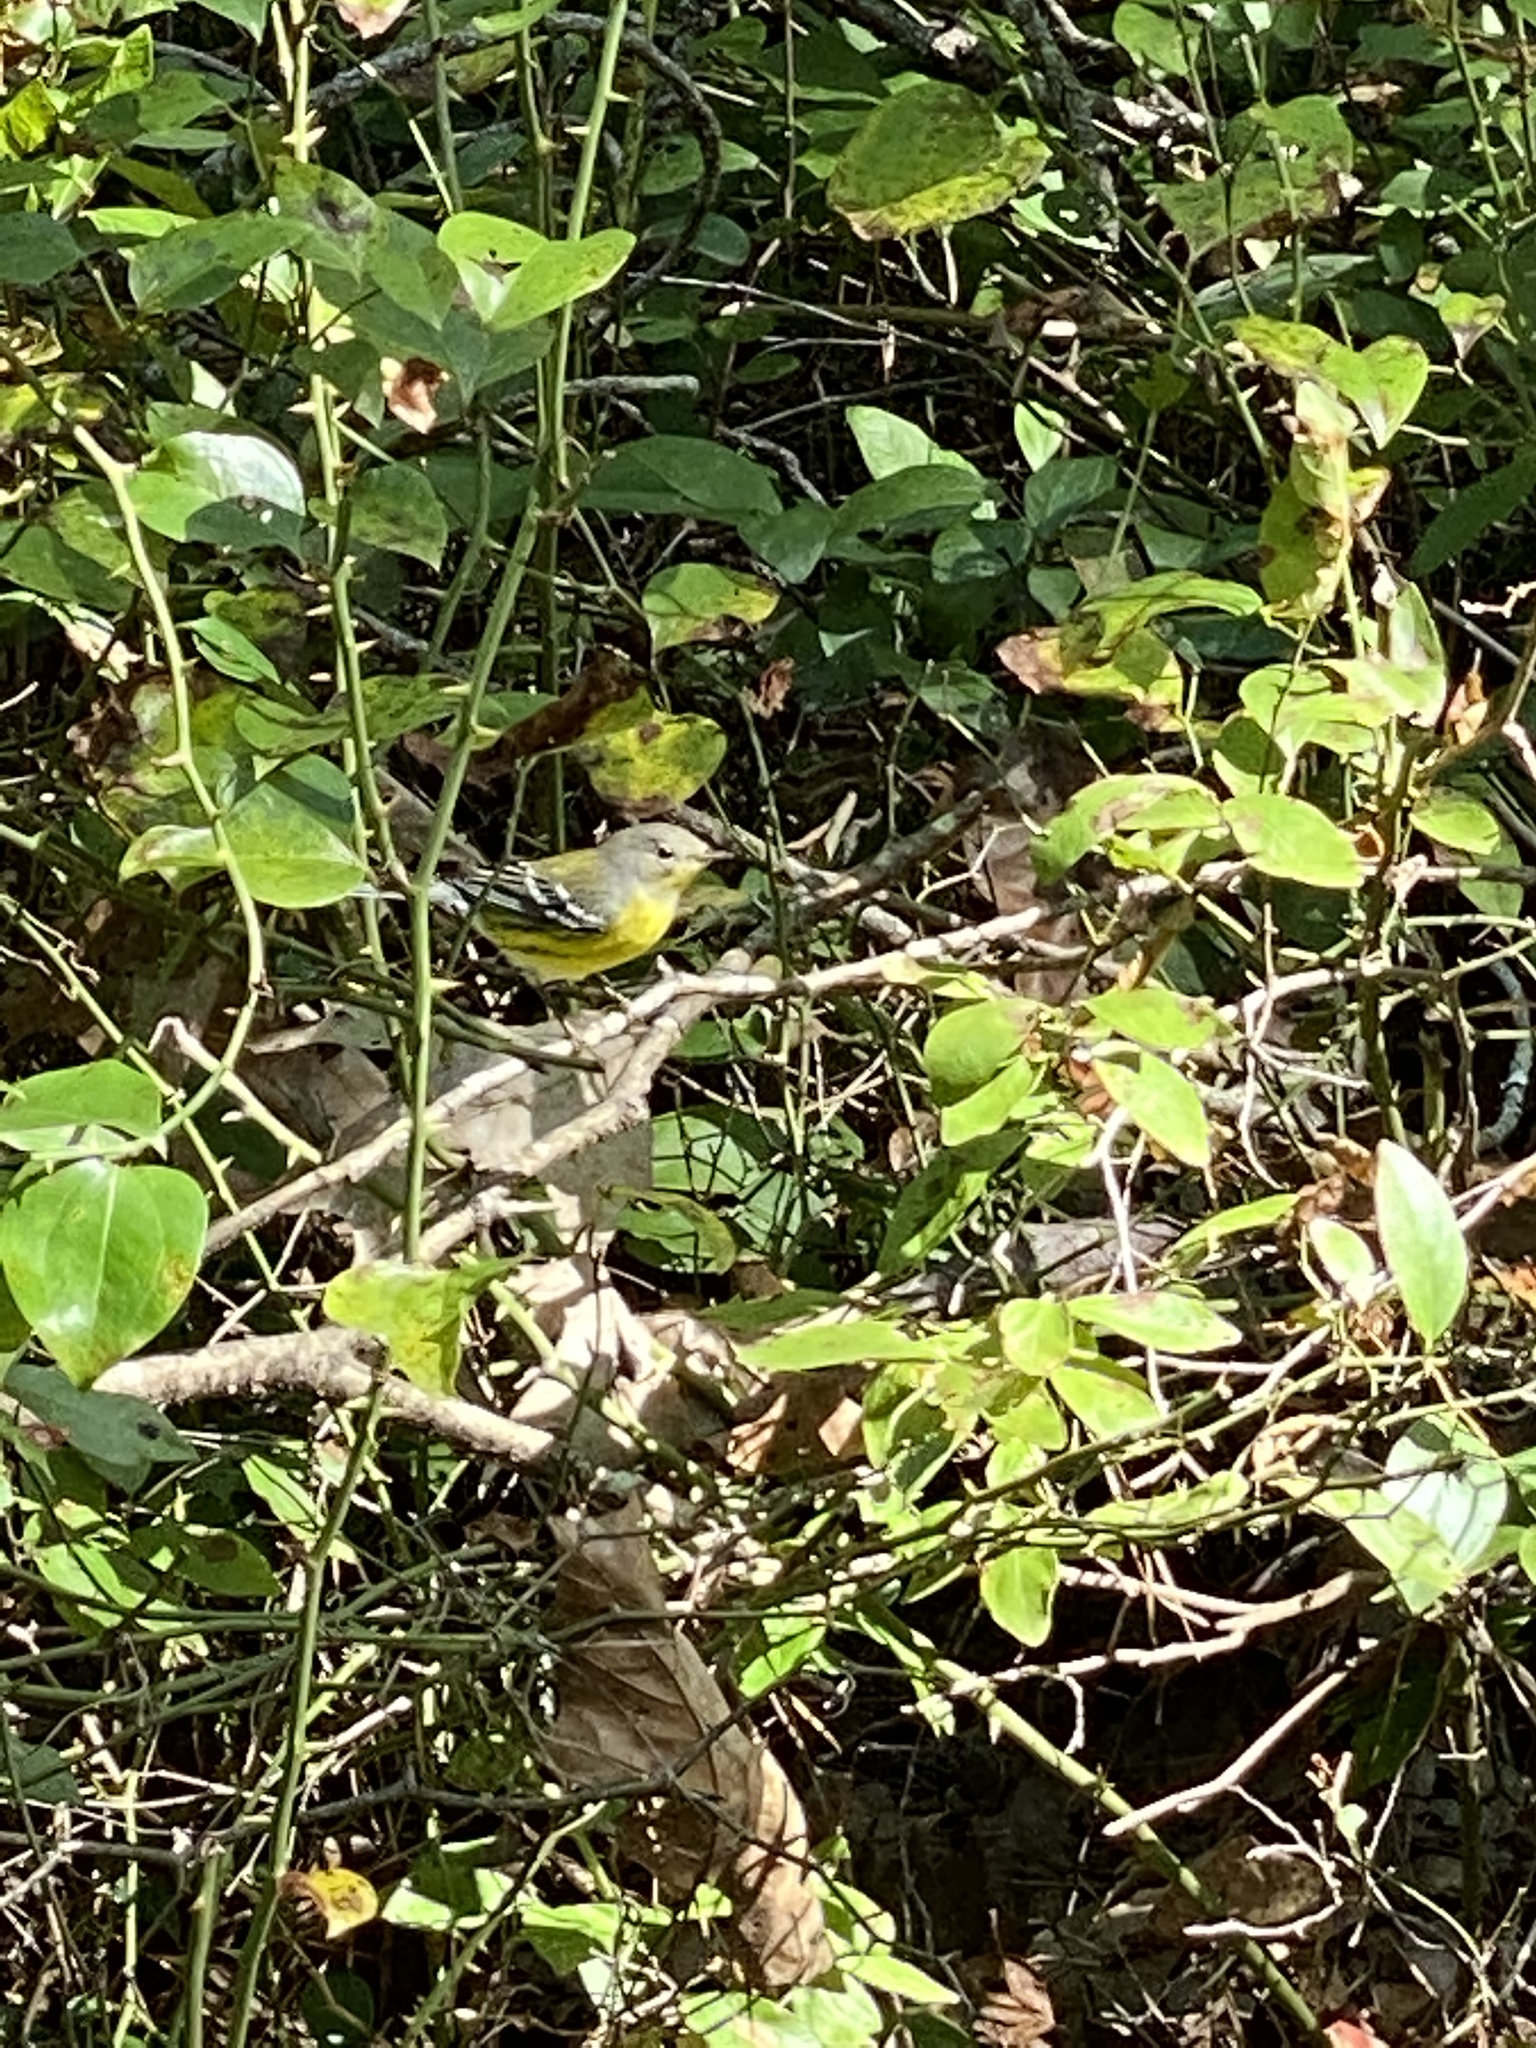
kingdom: Animalia
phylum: Chordata
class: Aves
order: Passeriformes
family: Parulidae
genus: Setophaga
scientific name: Setophaga magnolia
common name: Magnolia warbler
